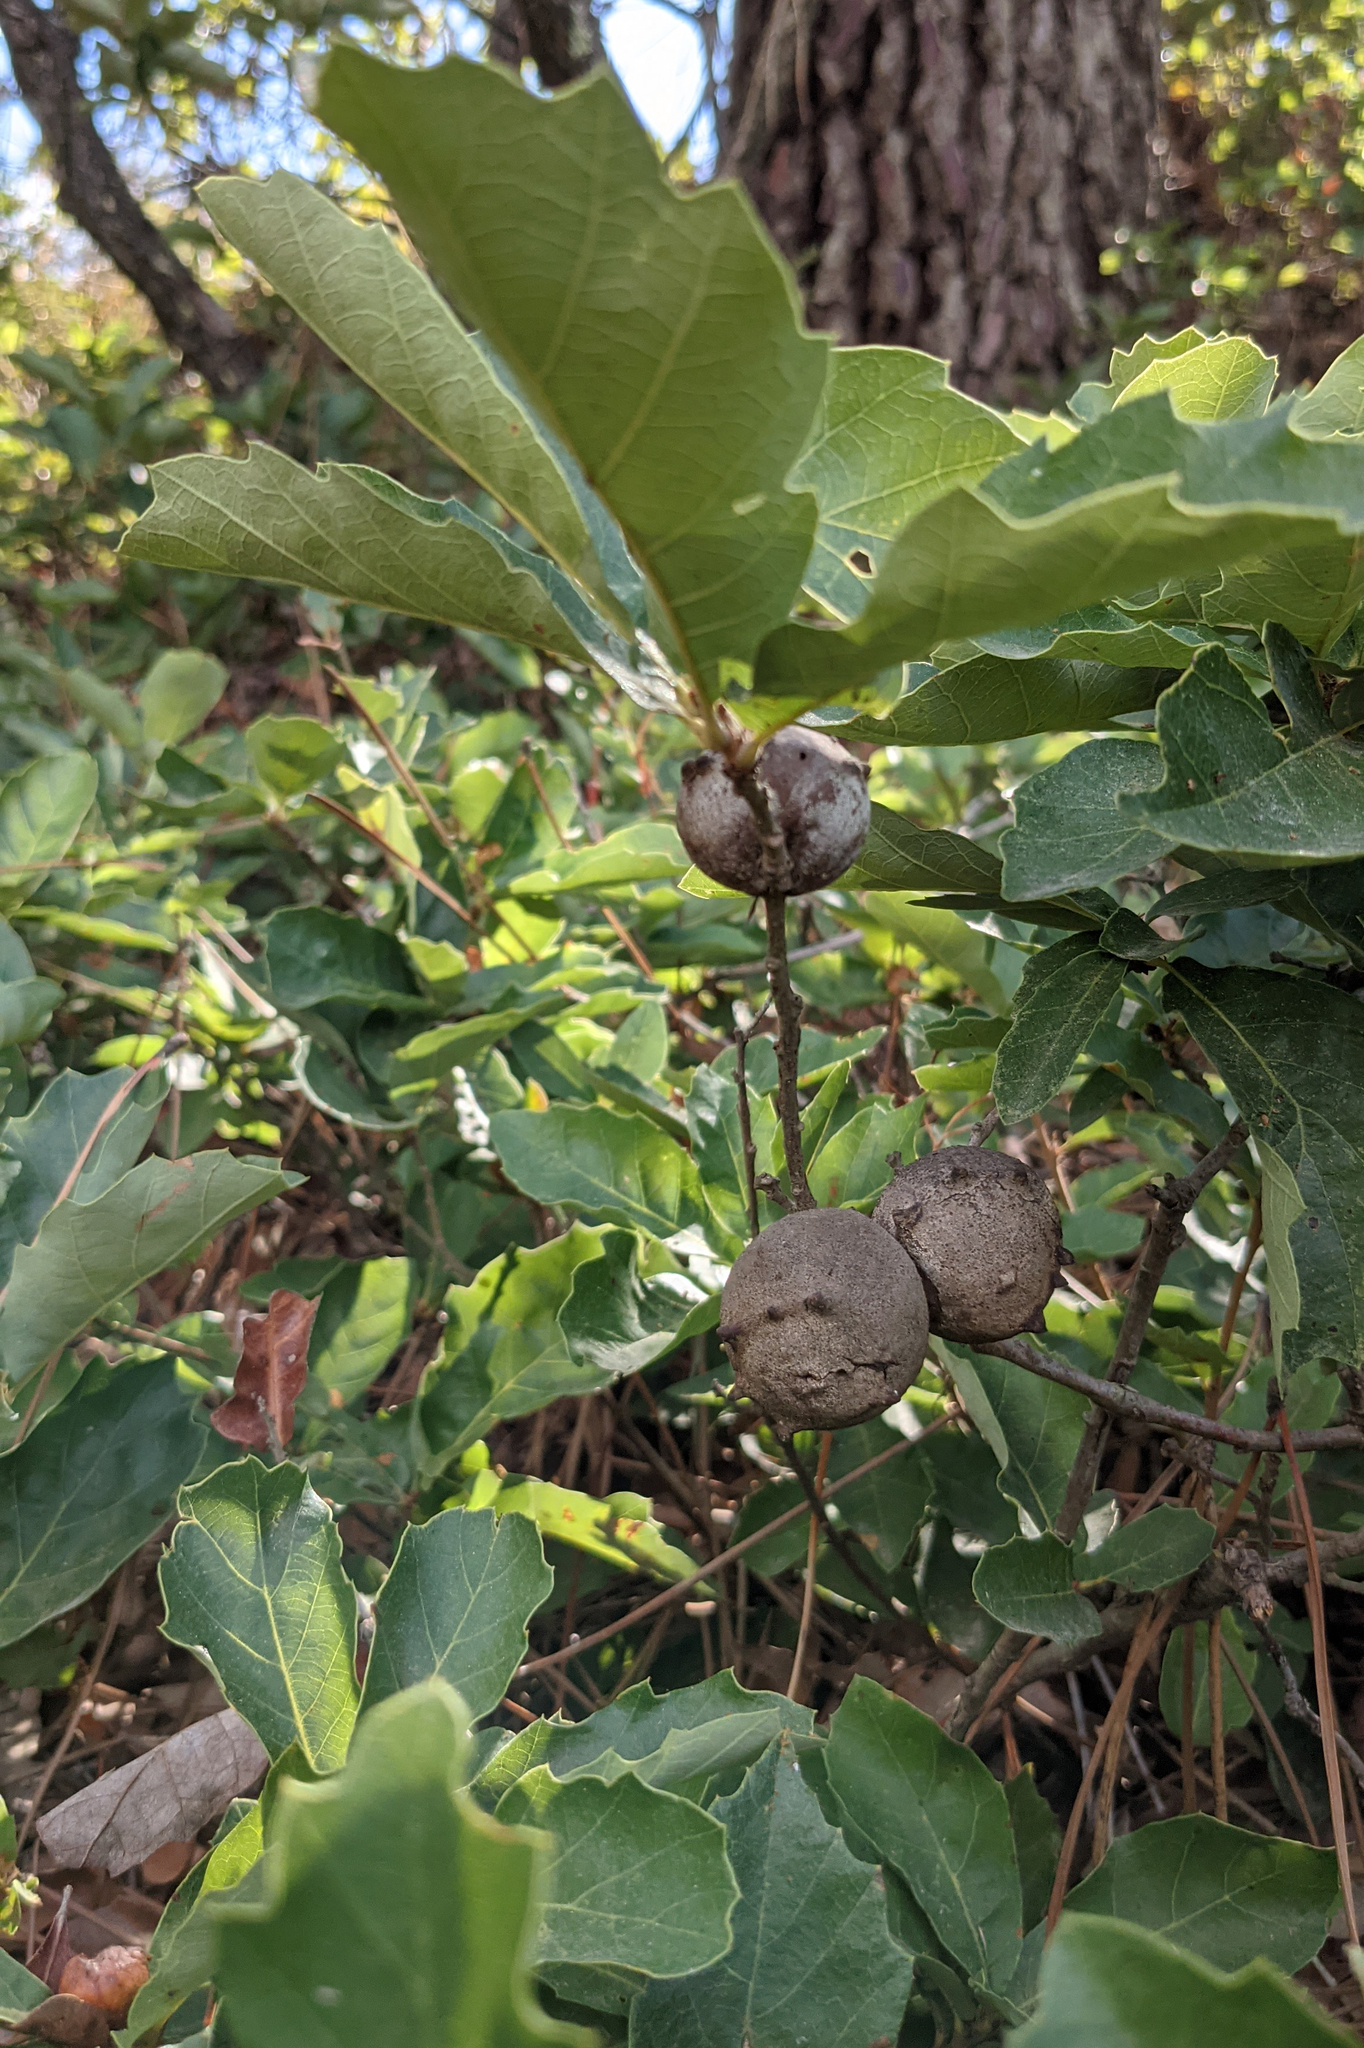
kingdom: Animalia
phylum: Arthropoda
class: Insecta
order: Hymenoptera
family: Cynipidae
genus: Andricus
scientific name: Andricus quercustozae
